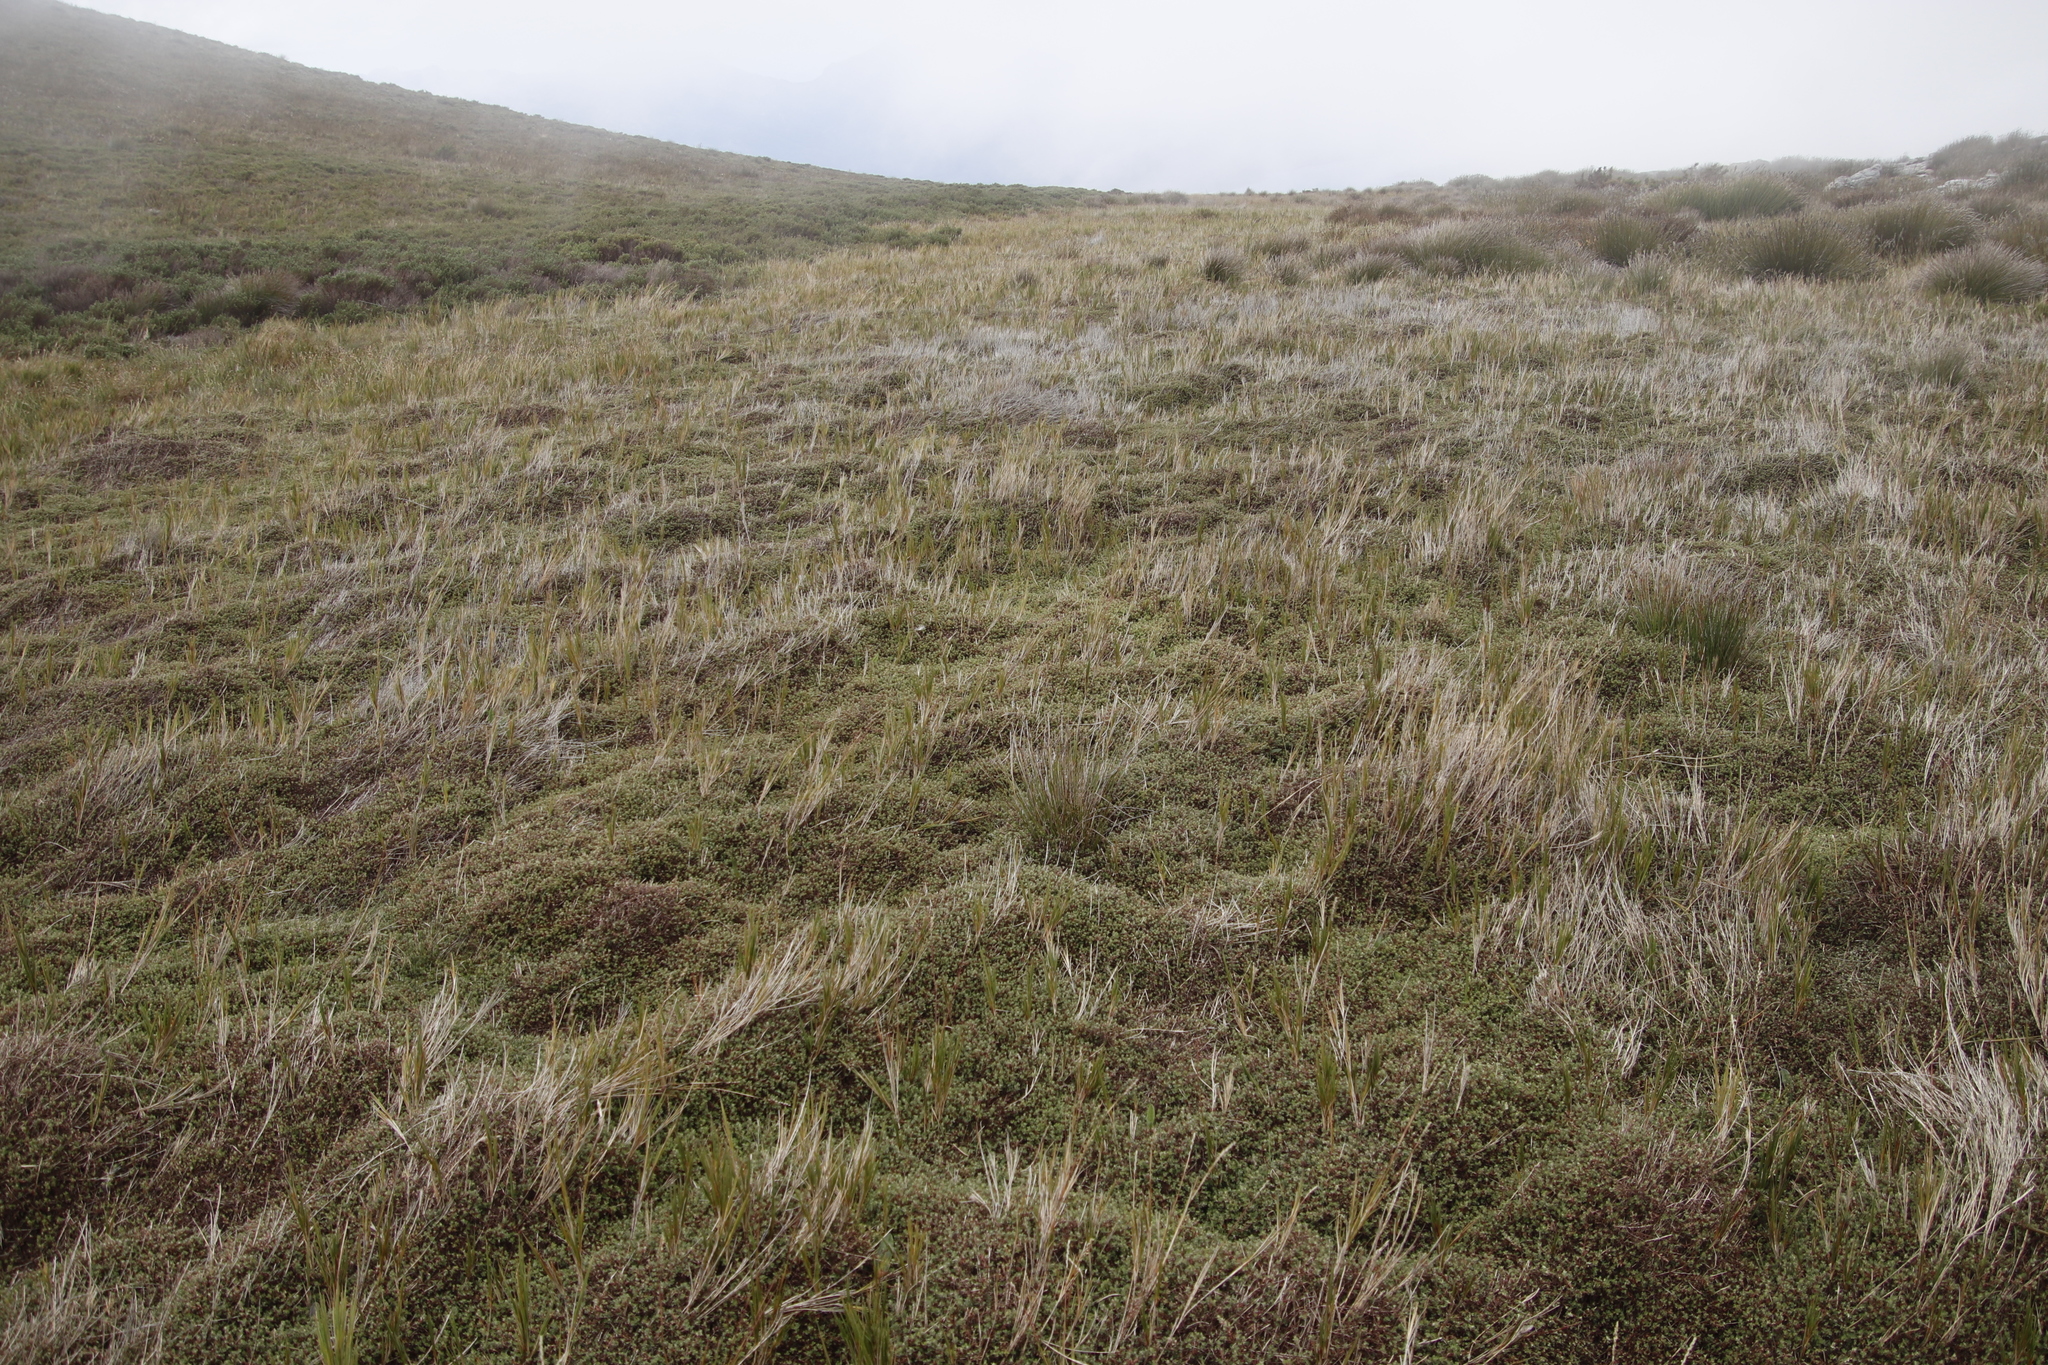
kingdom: Plantae
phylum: Tracheophyta
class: Magnoliopsida
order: Rosales
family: Rosaceae
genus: Cliffortia
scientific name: Cliffortia tricuspidata
